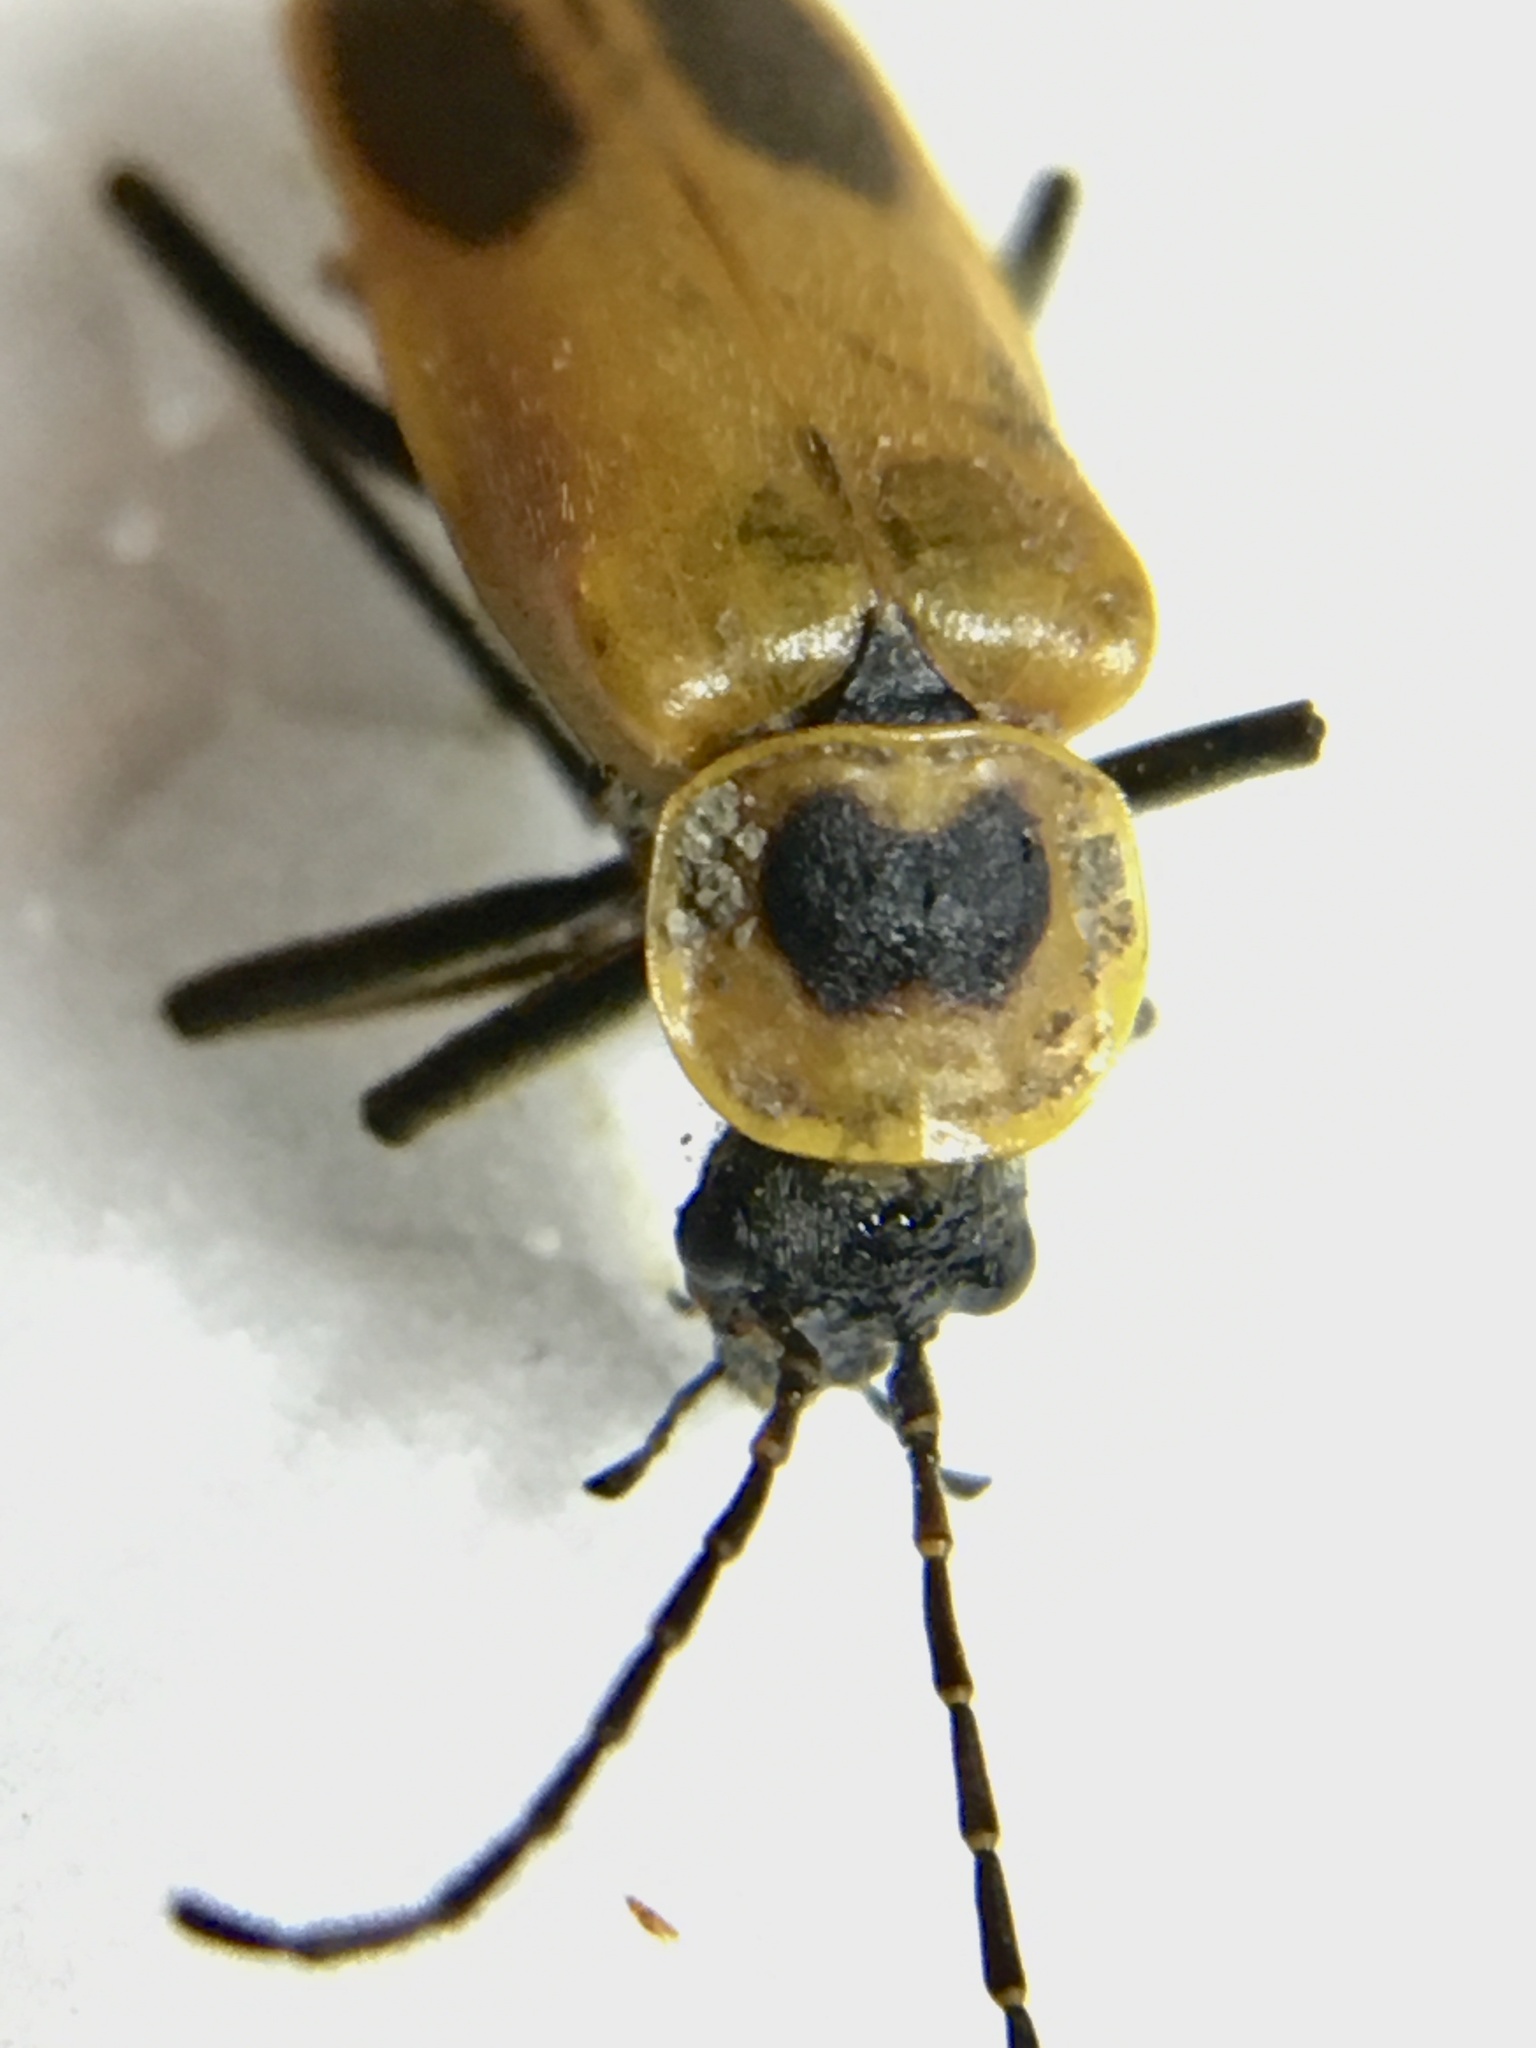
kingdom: Animalia
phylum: Arthropoda
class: Insecta
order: Coleoptera
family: Cantharidae
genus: Chauliognathus
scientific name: Chauliognathus pensylvanicus
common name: Goldenrod soldier beetle
